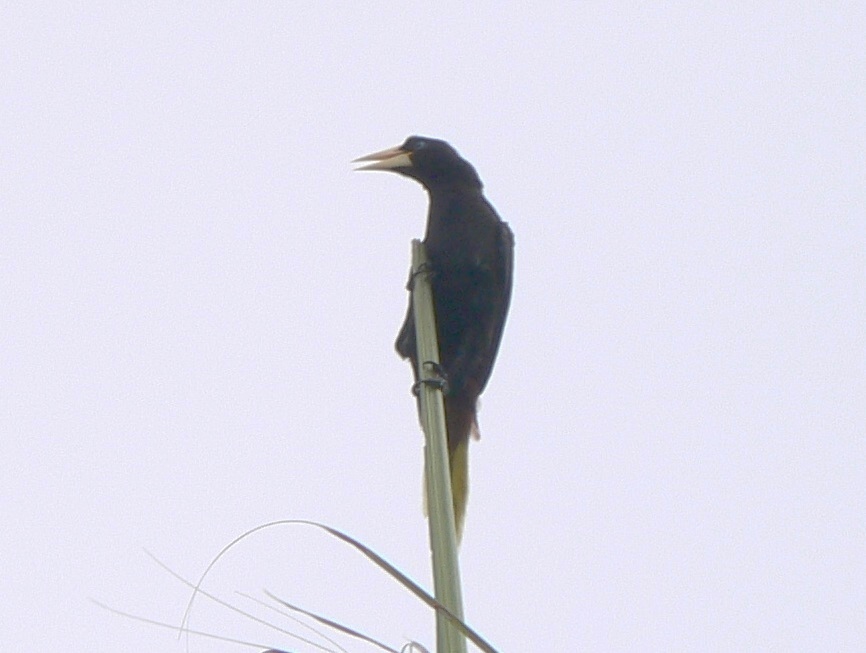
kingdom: Animalia
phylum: Chordata
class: Aves
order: Passeriformes
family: Icteridae
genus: Psarocolius
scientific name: Psarocolius decumanus
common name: Crested oropendola
